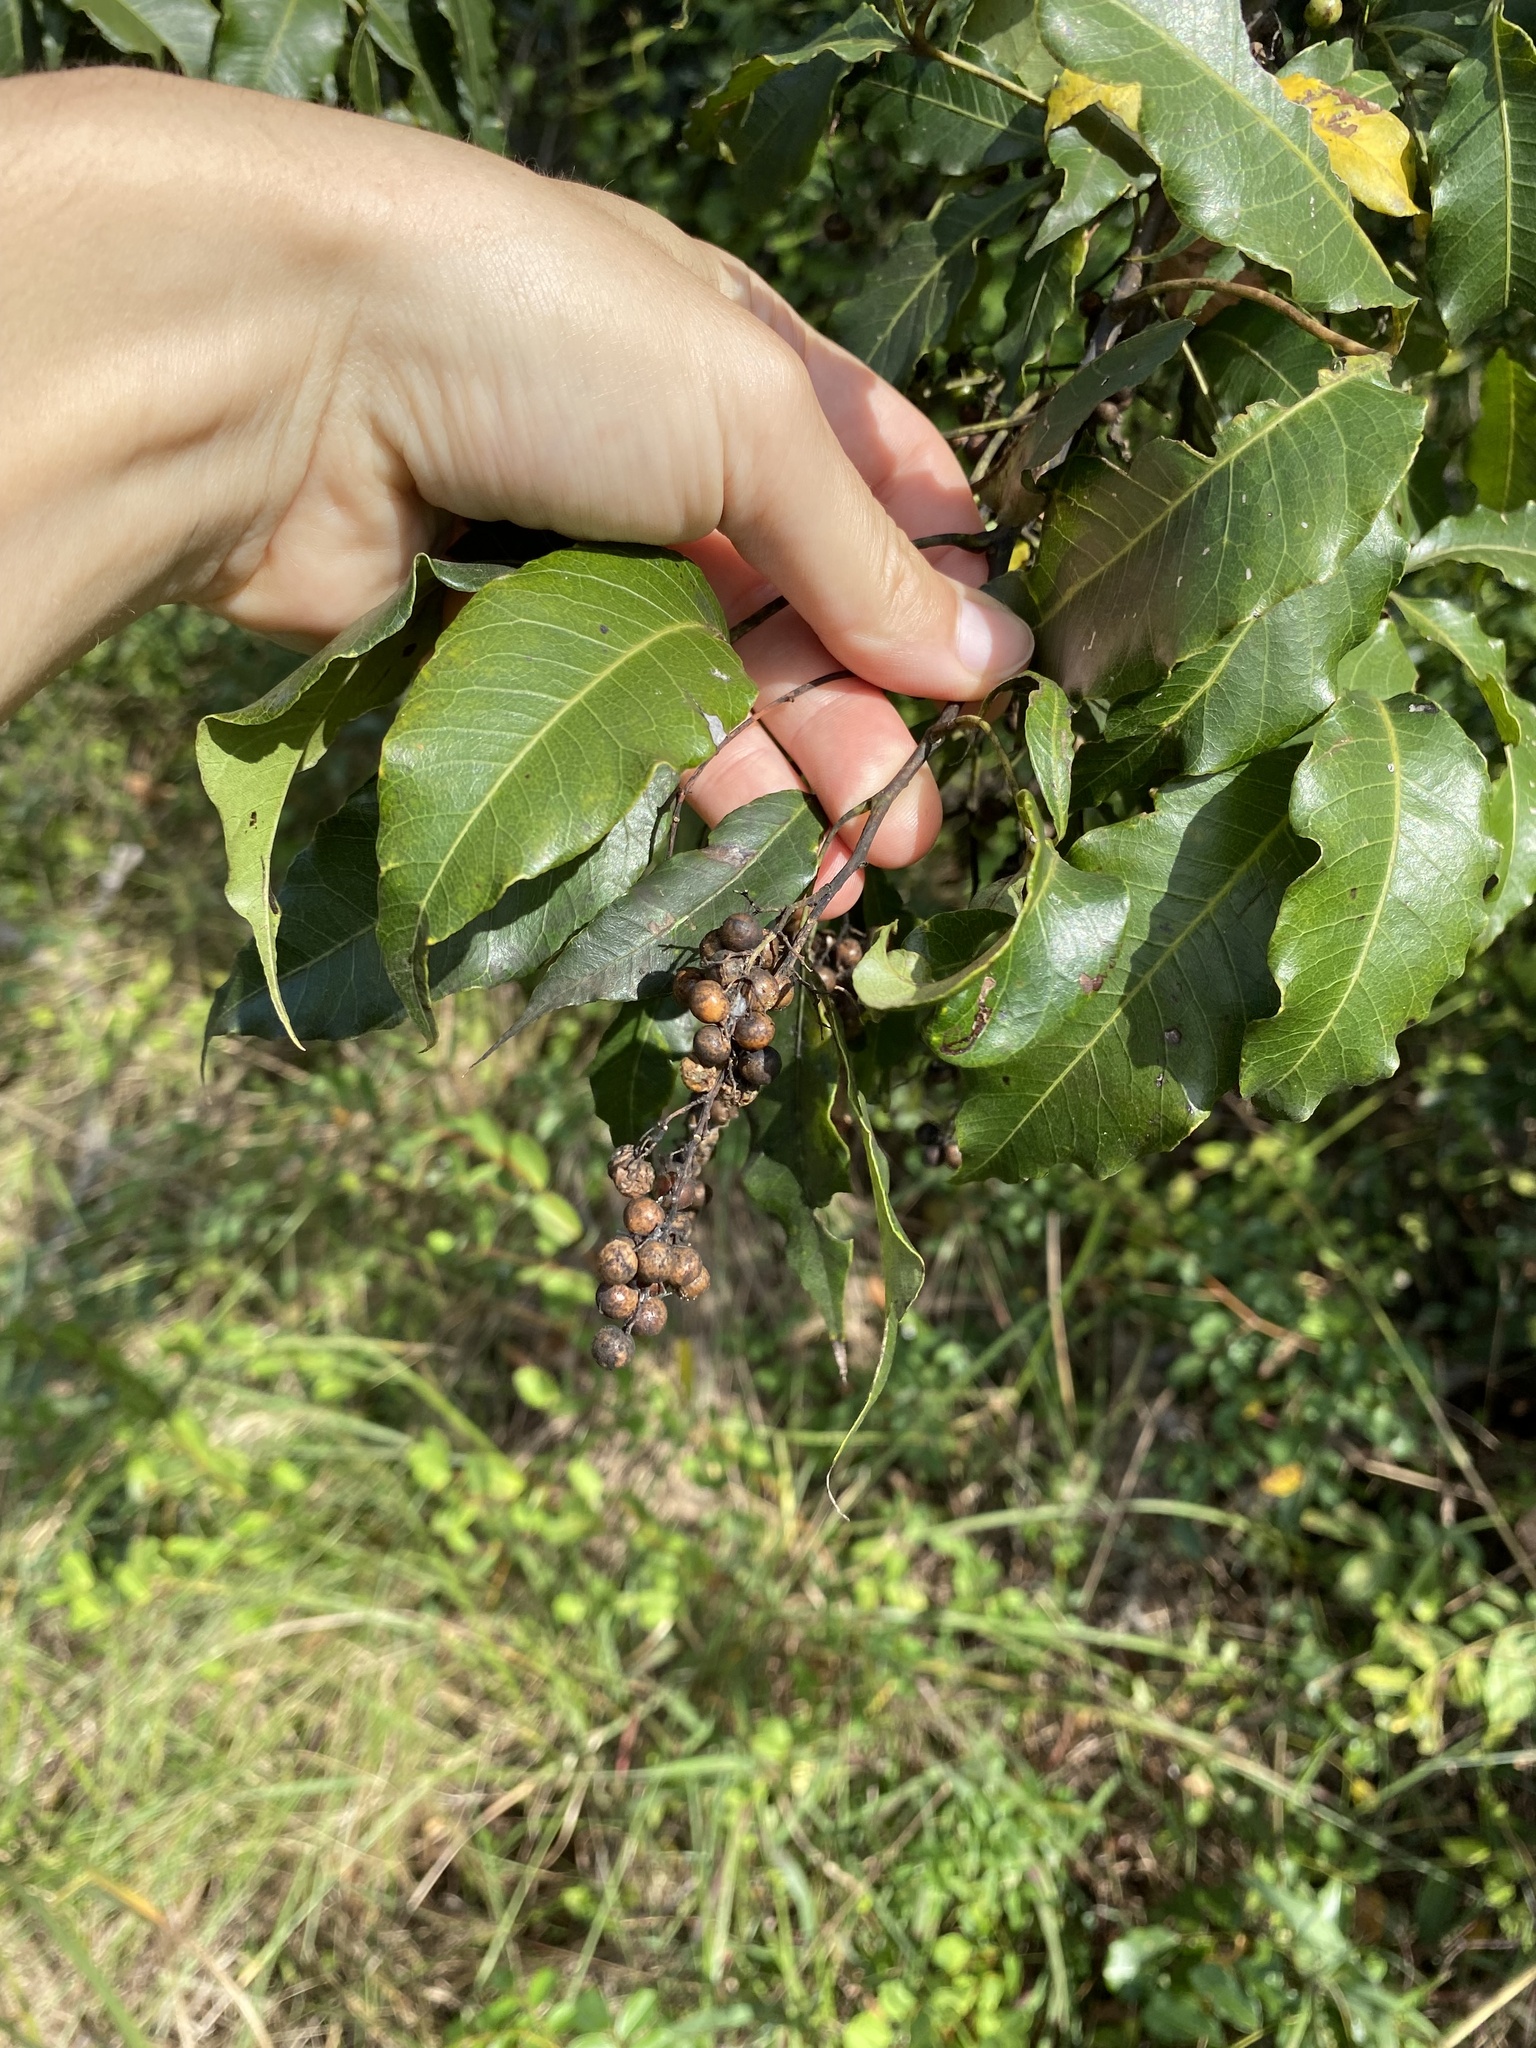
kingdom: Plantae
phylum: Tracheophyta
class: Magnoliopsida
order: Sapindales
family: Anacardiaceae
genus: Searsia
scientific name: Searsia chirindensis
